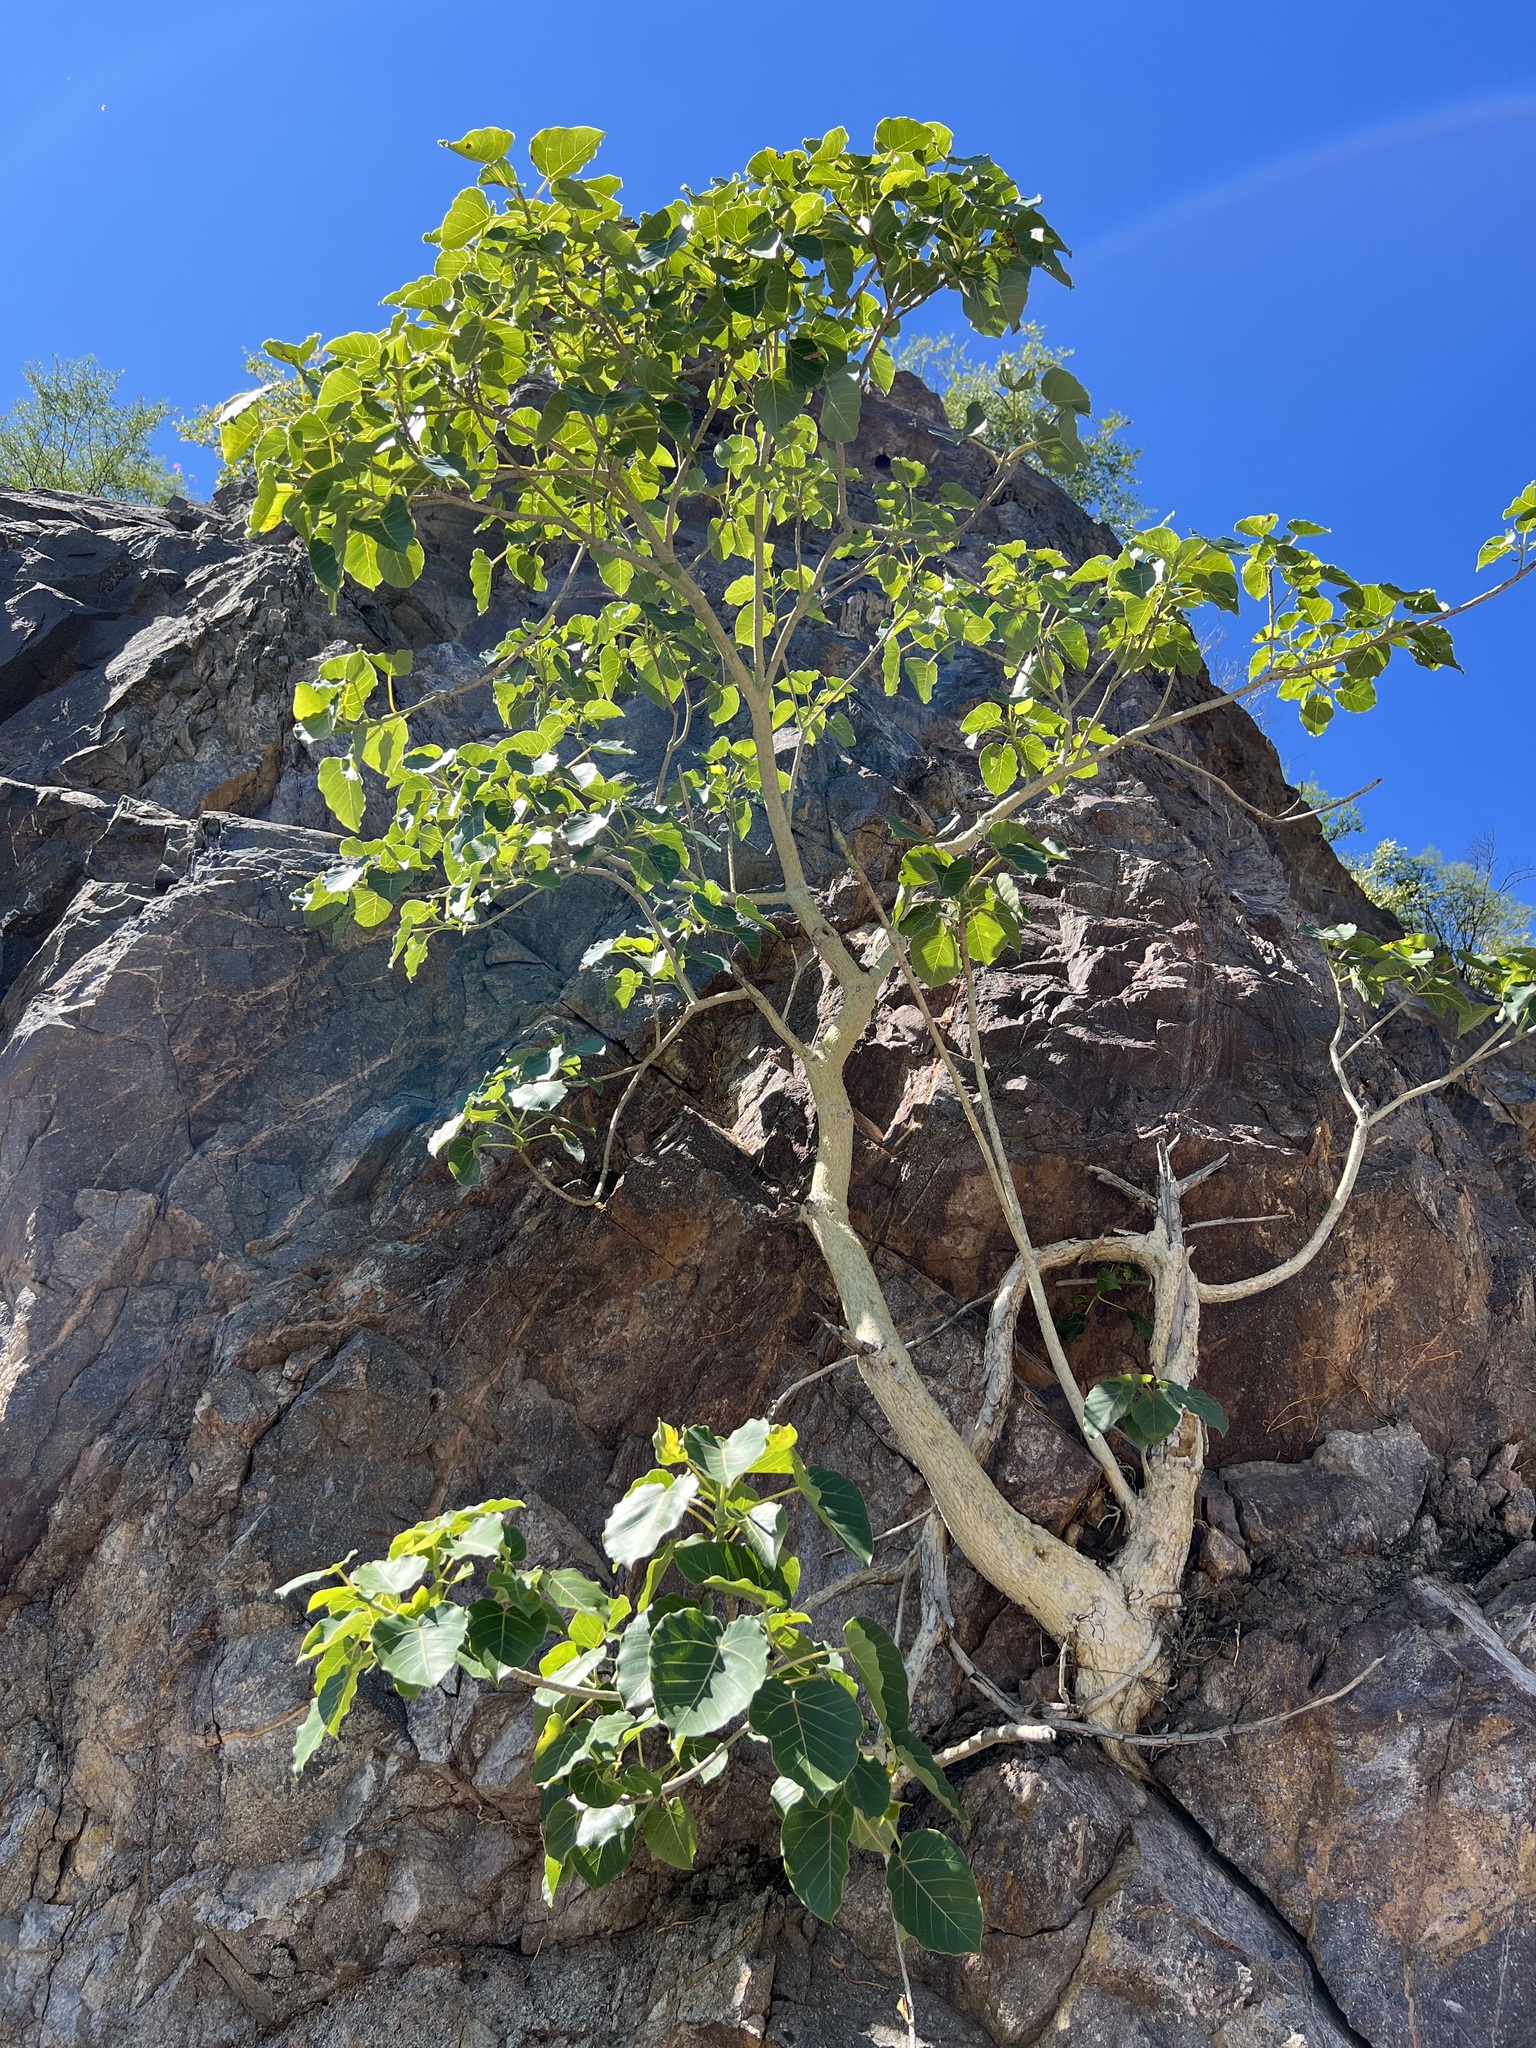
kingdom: Plantae
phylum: Tracheophyta
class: Magnoliopsida
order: Rosales
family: Moraceae
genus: Ficus
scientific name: Ficus petiolaris
